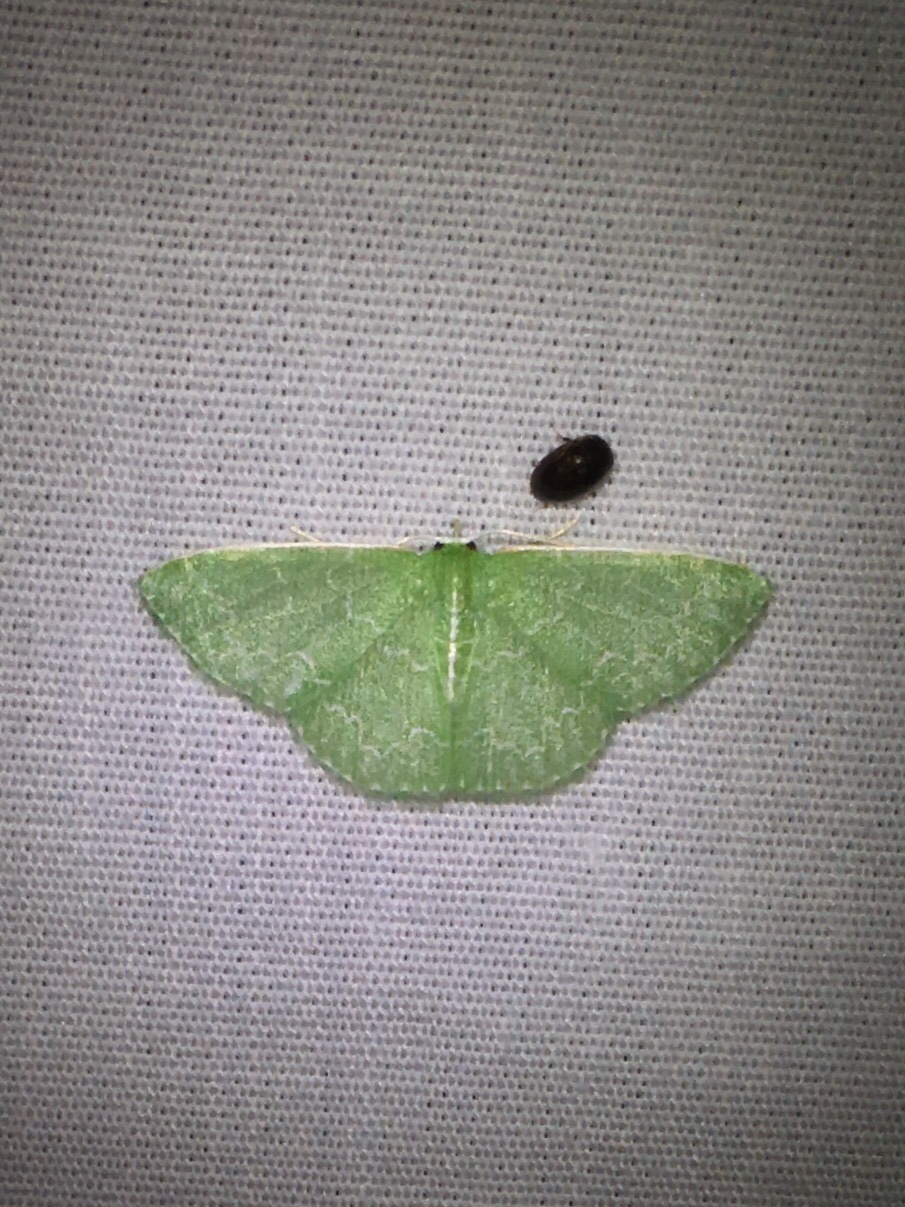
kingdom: Animalia
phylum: Arthropoda
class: Insecta
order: Lepidoptera
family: Geometridae
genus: Synchlora
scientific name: Synchlora frondaria
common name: Southern emerald
